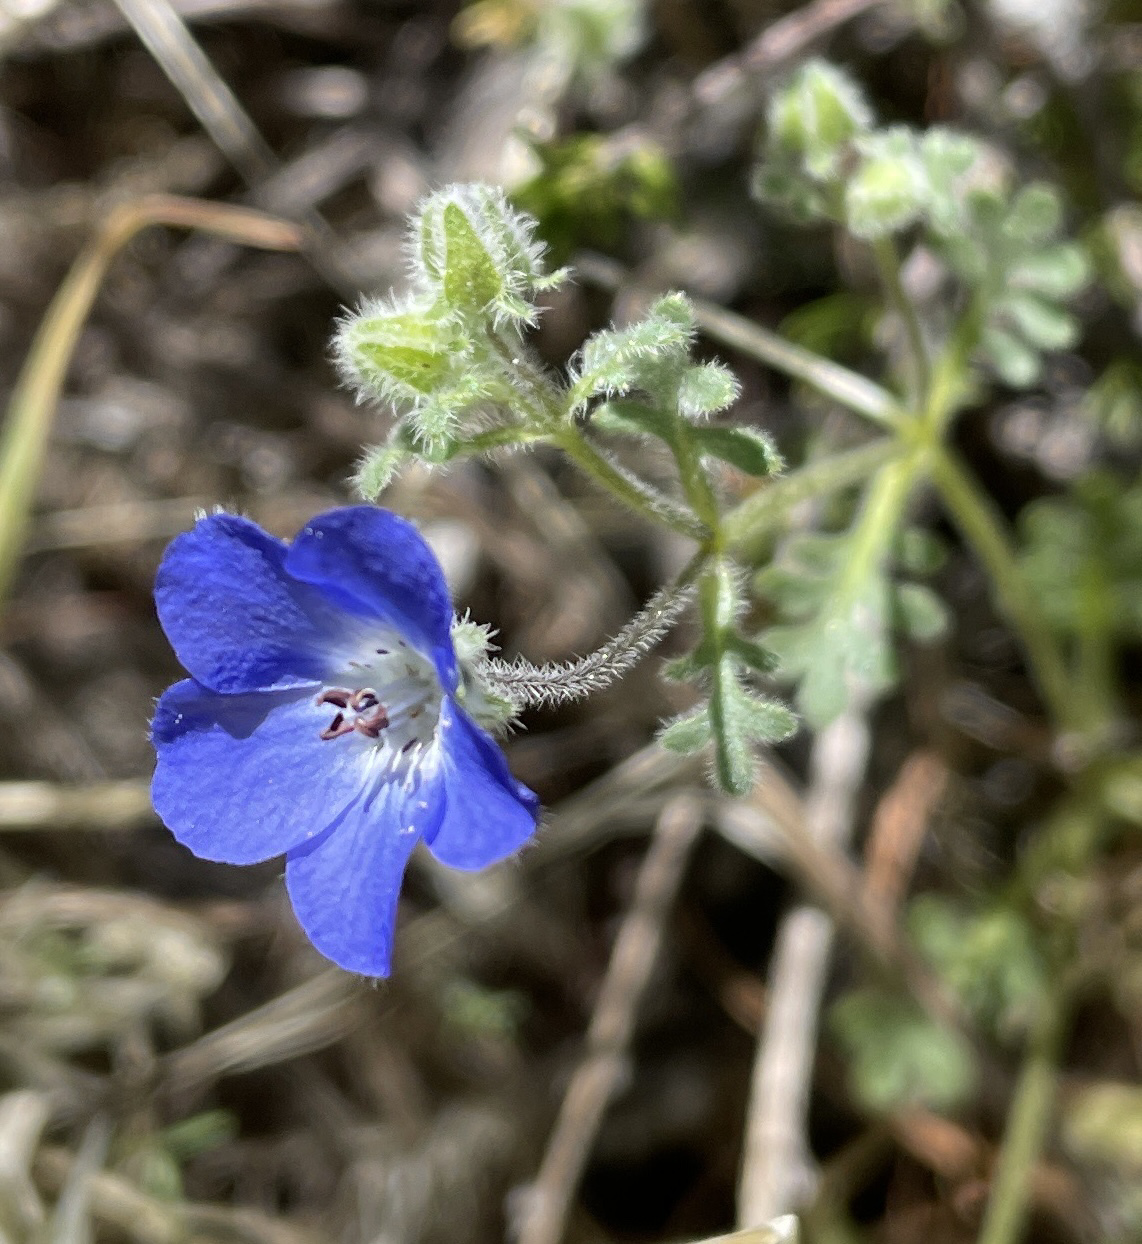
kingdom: Plantae
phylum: Tracheophyta
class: Magnoliopsida
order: Boraginales
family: Hydrophyllaceae
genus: Nemophila
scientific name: Nemophila menziesii
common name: Baby's-blue-eyes
